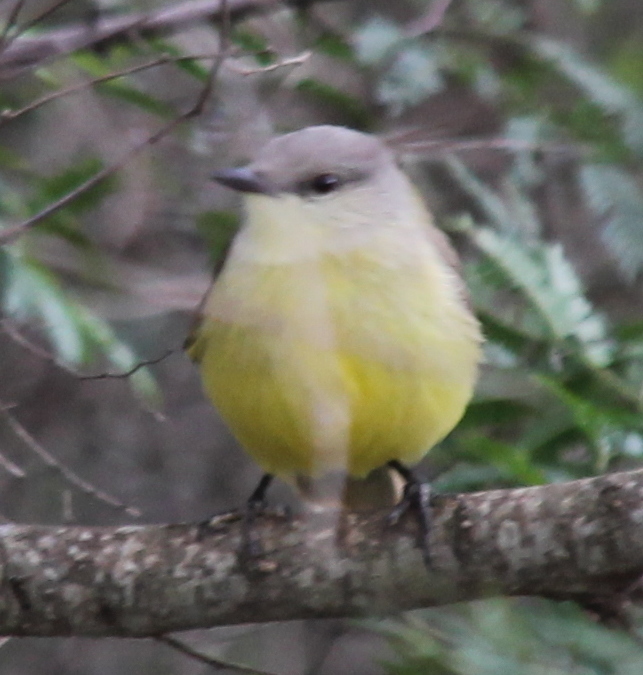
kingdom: Animalia
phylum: Chordata
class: Aves
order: Passeriformes
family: Tyrannidae
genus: Machetornis
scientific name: Machetornis rixosa
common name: Cattle tyrant
